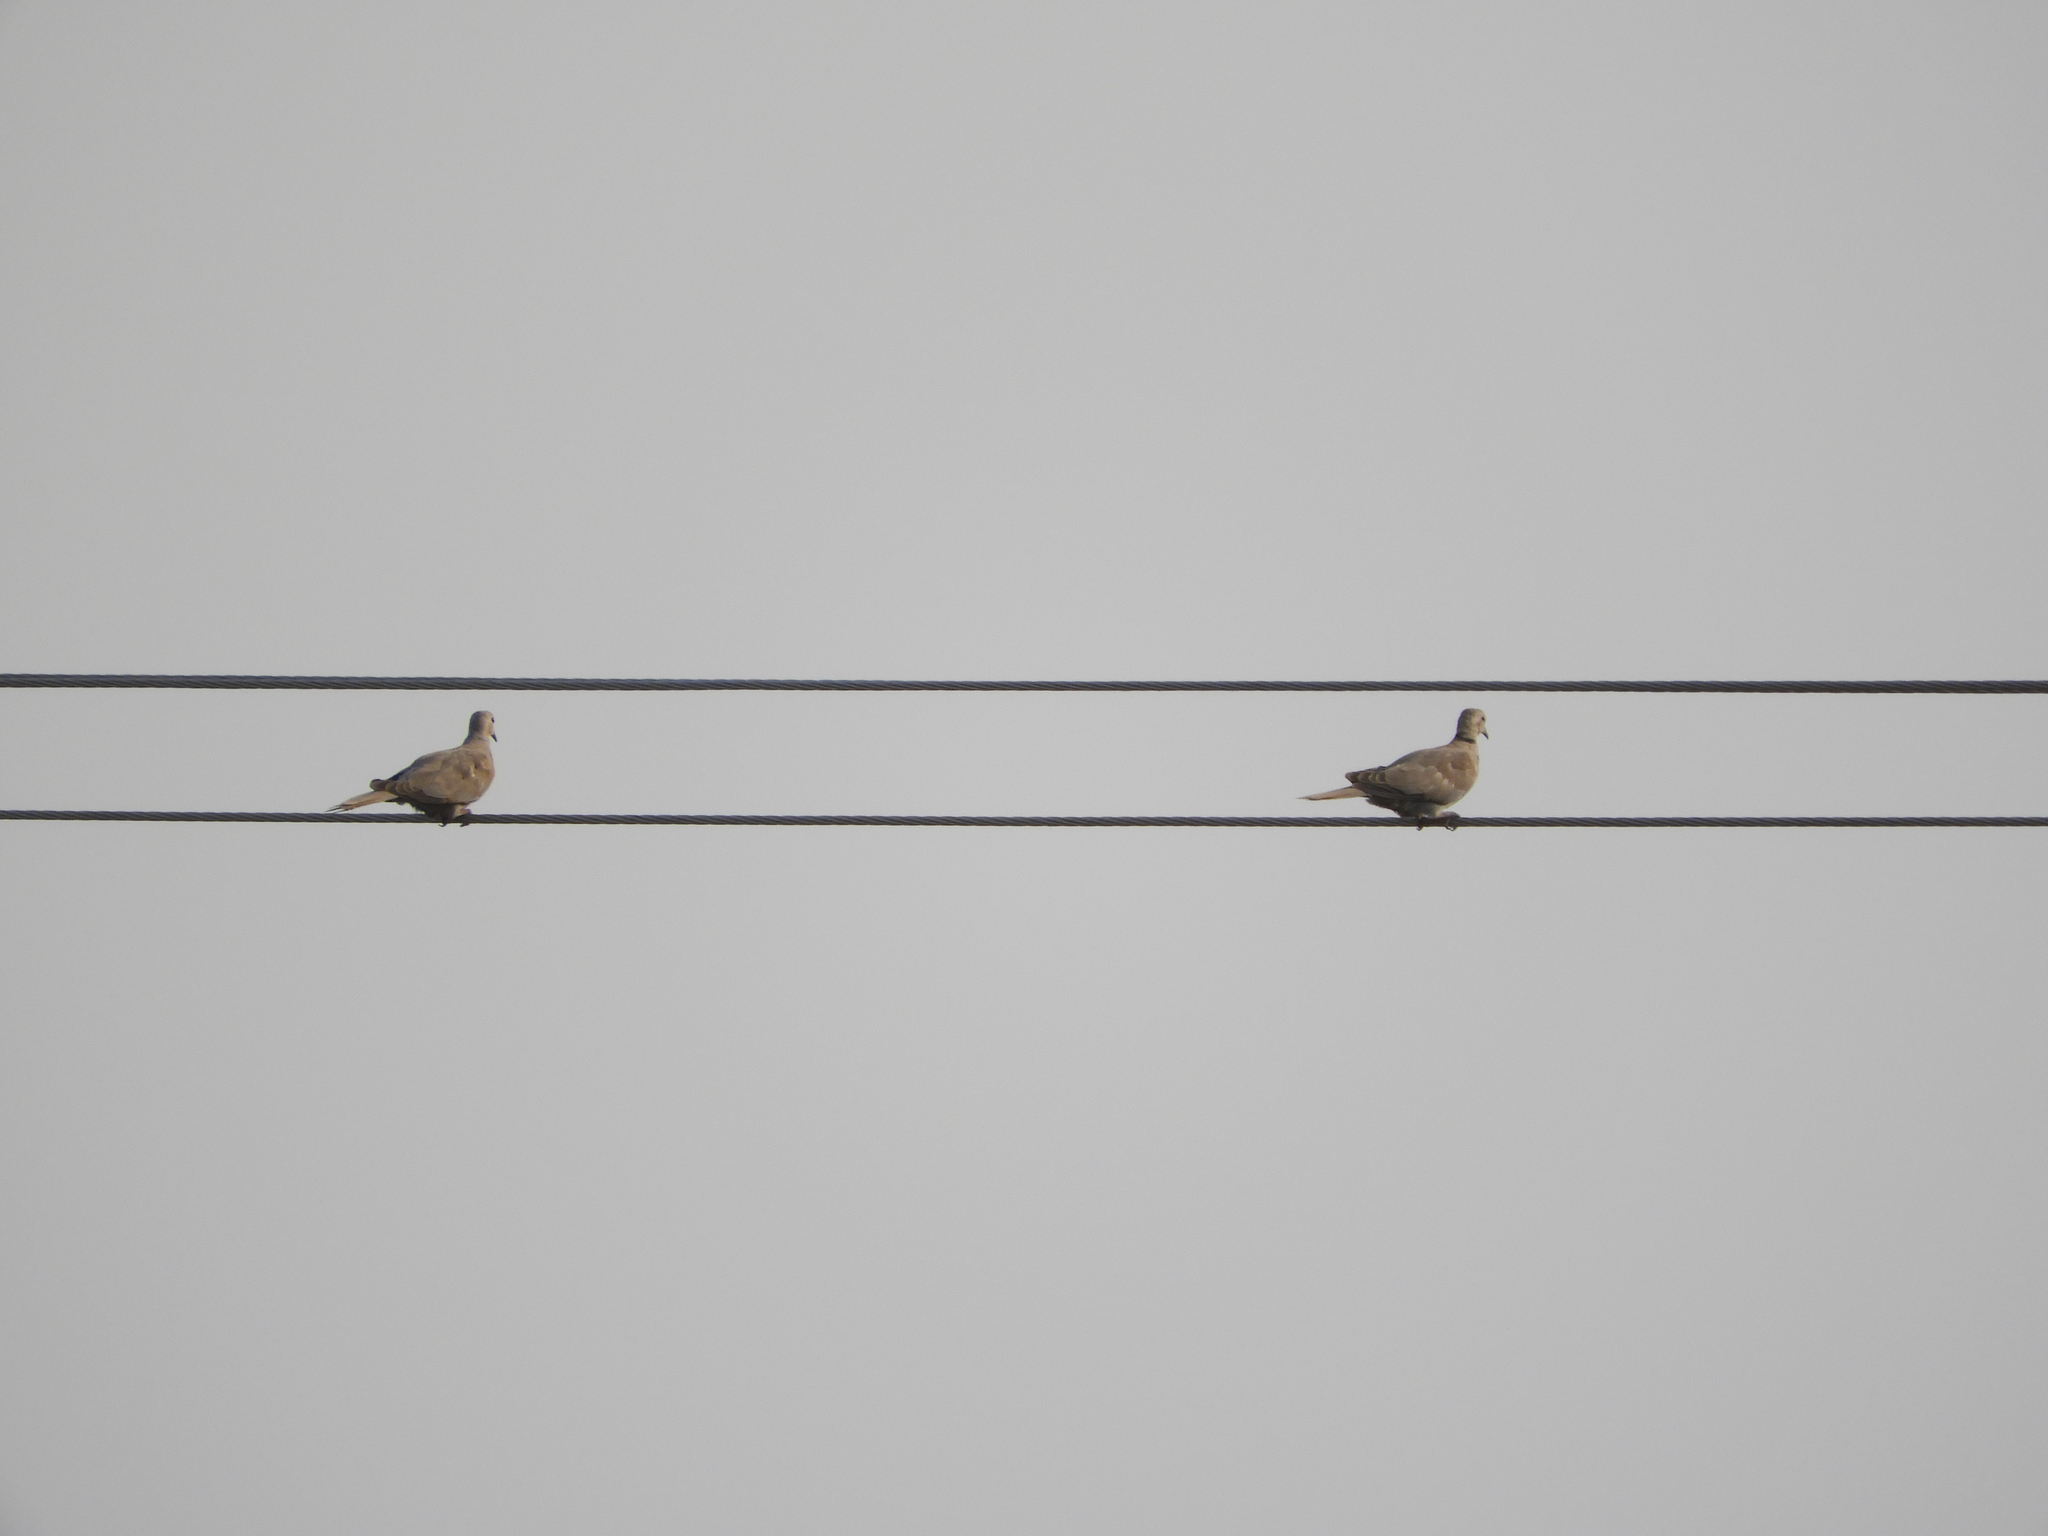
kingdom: Animalia
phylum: Chordata
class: Aves
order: Columbiformes
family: Columbidae
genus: Streptopelia
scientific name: Streptopelia decaocto
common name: Eurasian collared dove
